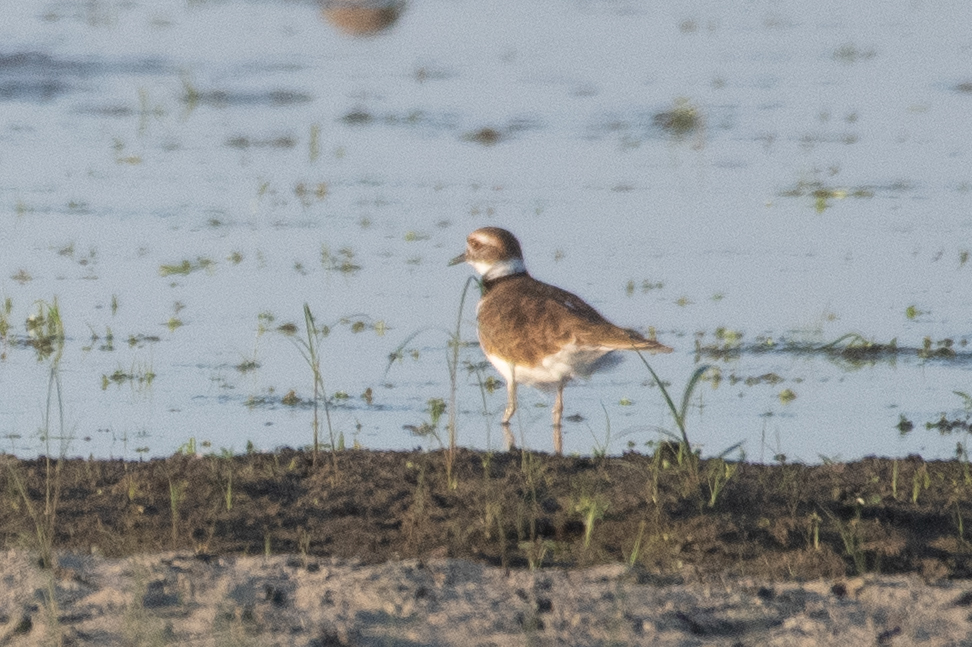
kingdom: Animalia
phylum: Chordata
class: Aves
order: Charadriiformes
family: Charadriidae
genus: Charadrius
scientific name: Charadrius vociferus
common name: Killdeer
